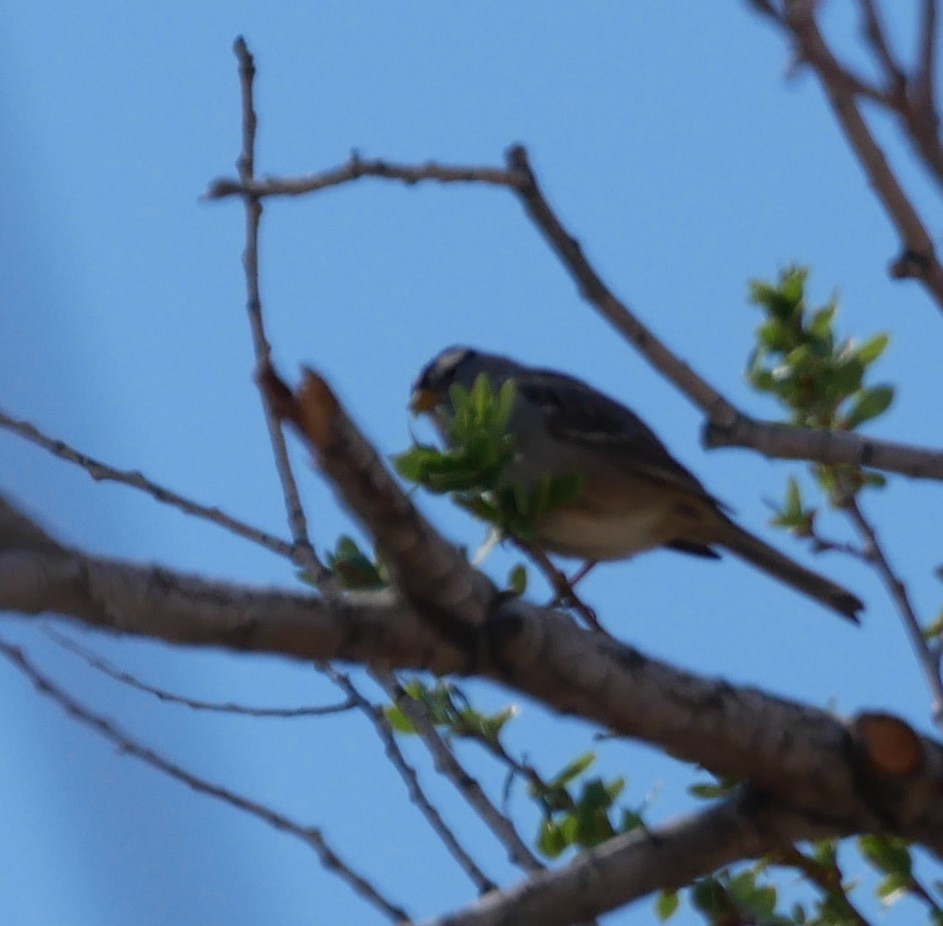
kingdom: Animalia
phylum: Chordata
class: Aves
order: Passeriformes
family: Passerellidae
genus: Zonotrichia
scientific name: Zonotrichia leucophrys
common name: White-crowned sparrow
